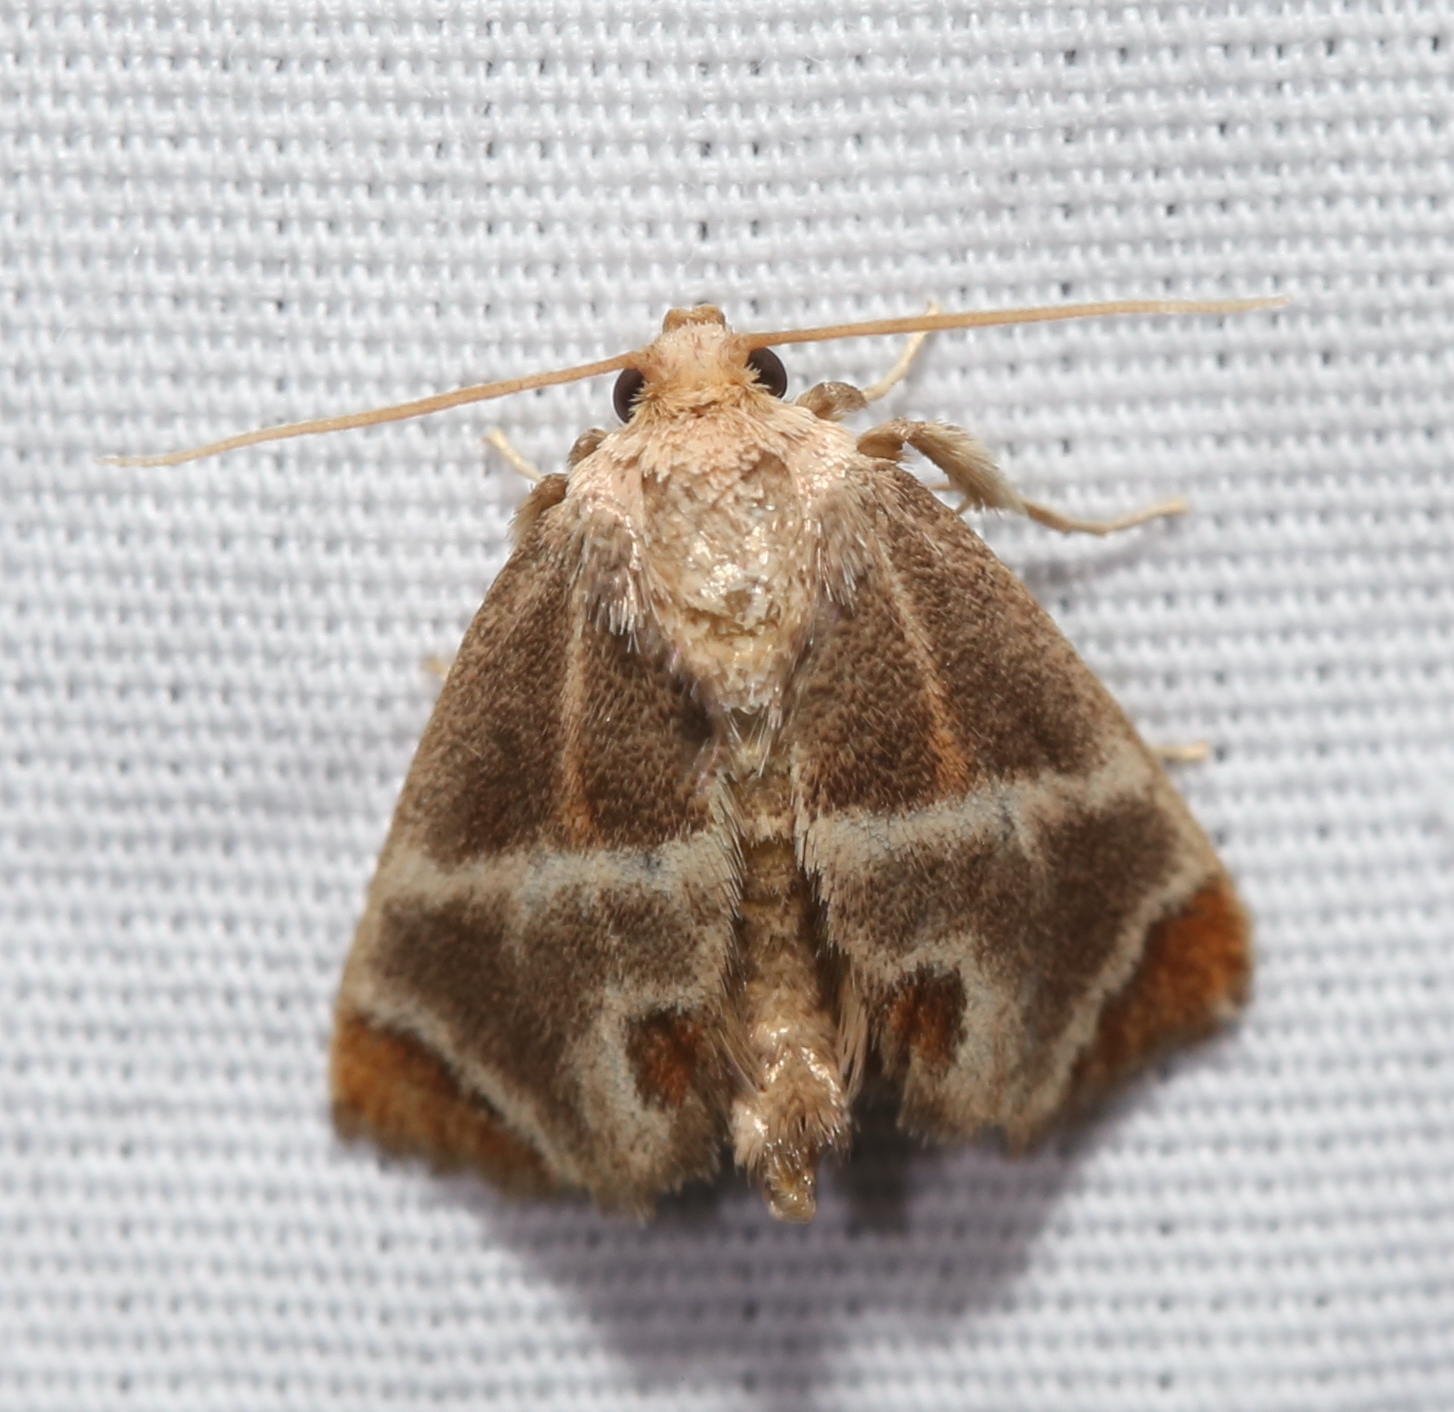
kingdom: Animalia
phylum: Arthropoda
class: Insecta
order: Lepidoptera
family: Limacodidae
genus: Apoda
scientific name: Apoda biguttata
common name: Shagreened slug moth
